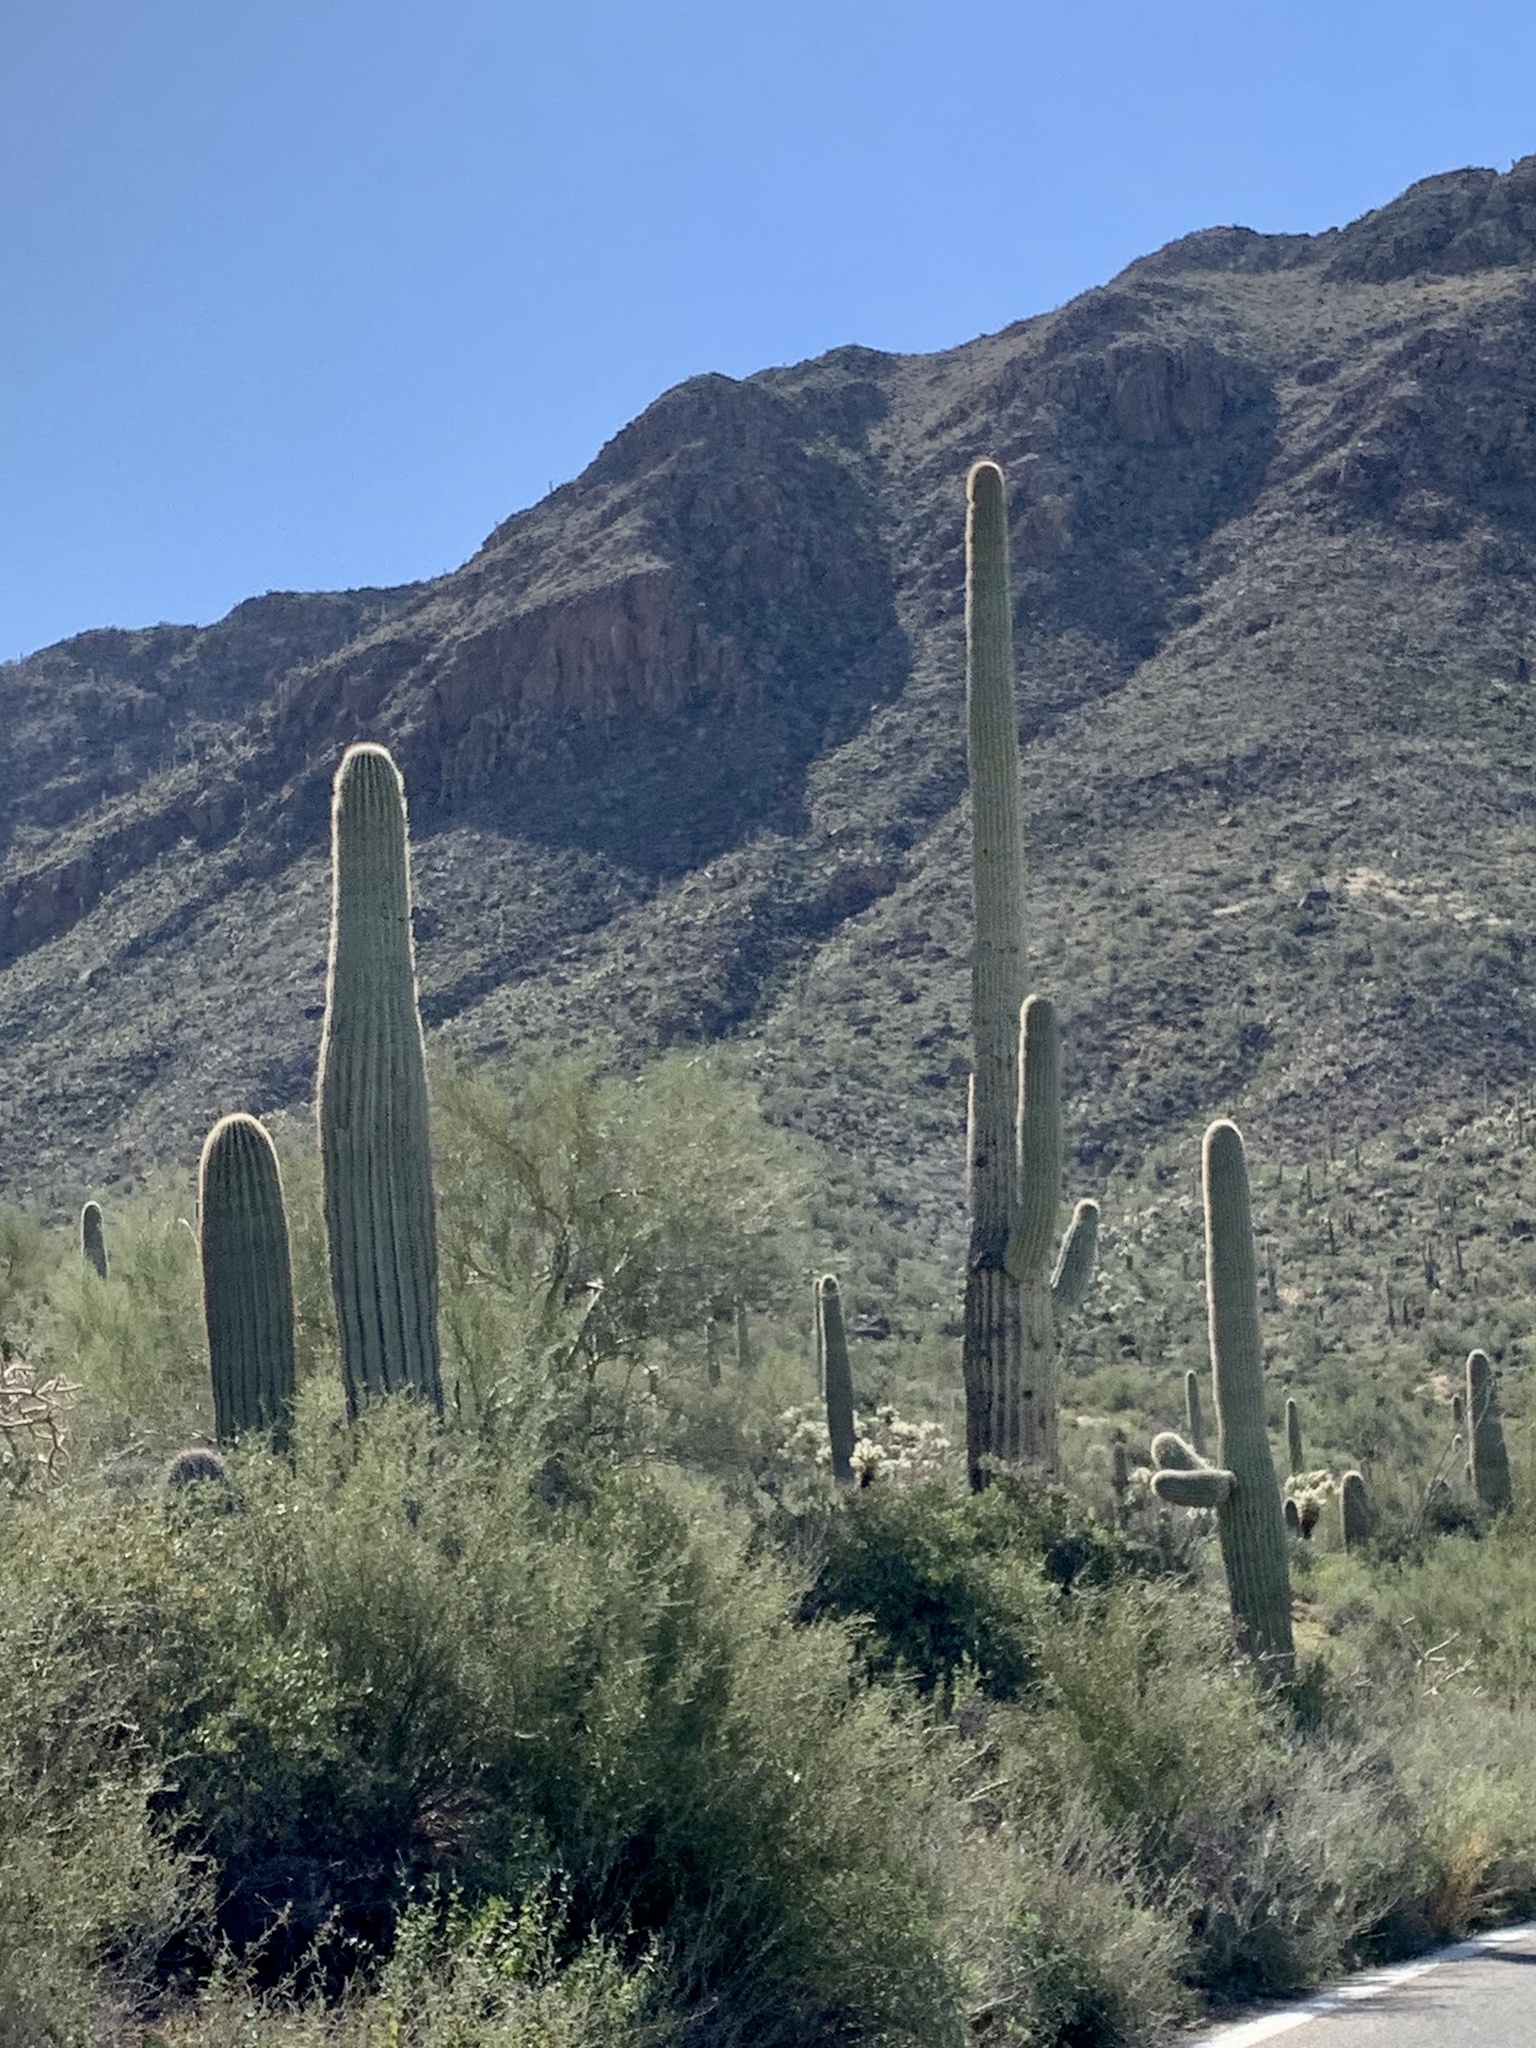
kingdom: Plantae
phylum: Tracheophyta
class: Magnoliopsida
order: Caryophyllales
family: Cactaceae
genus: Carnegiea
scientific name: Carnegiea gigantea
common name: Saguaro
